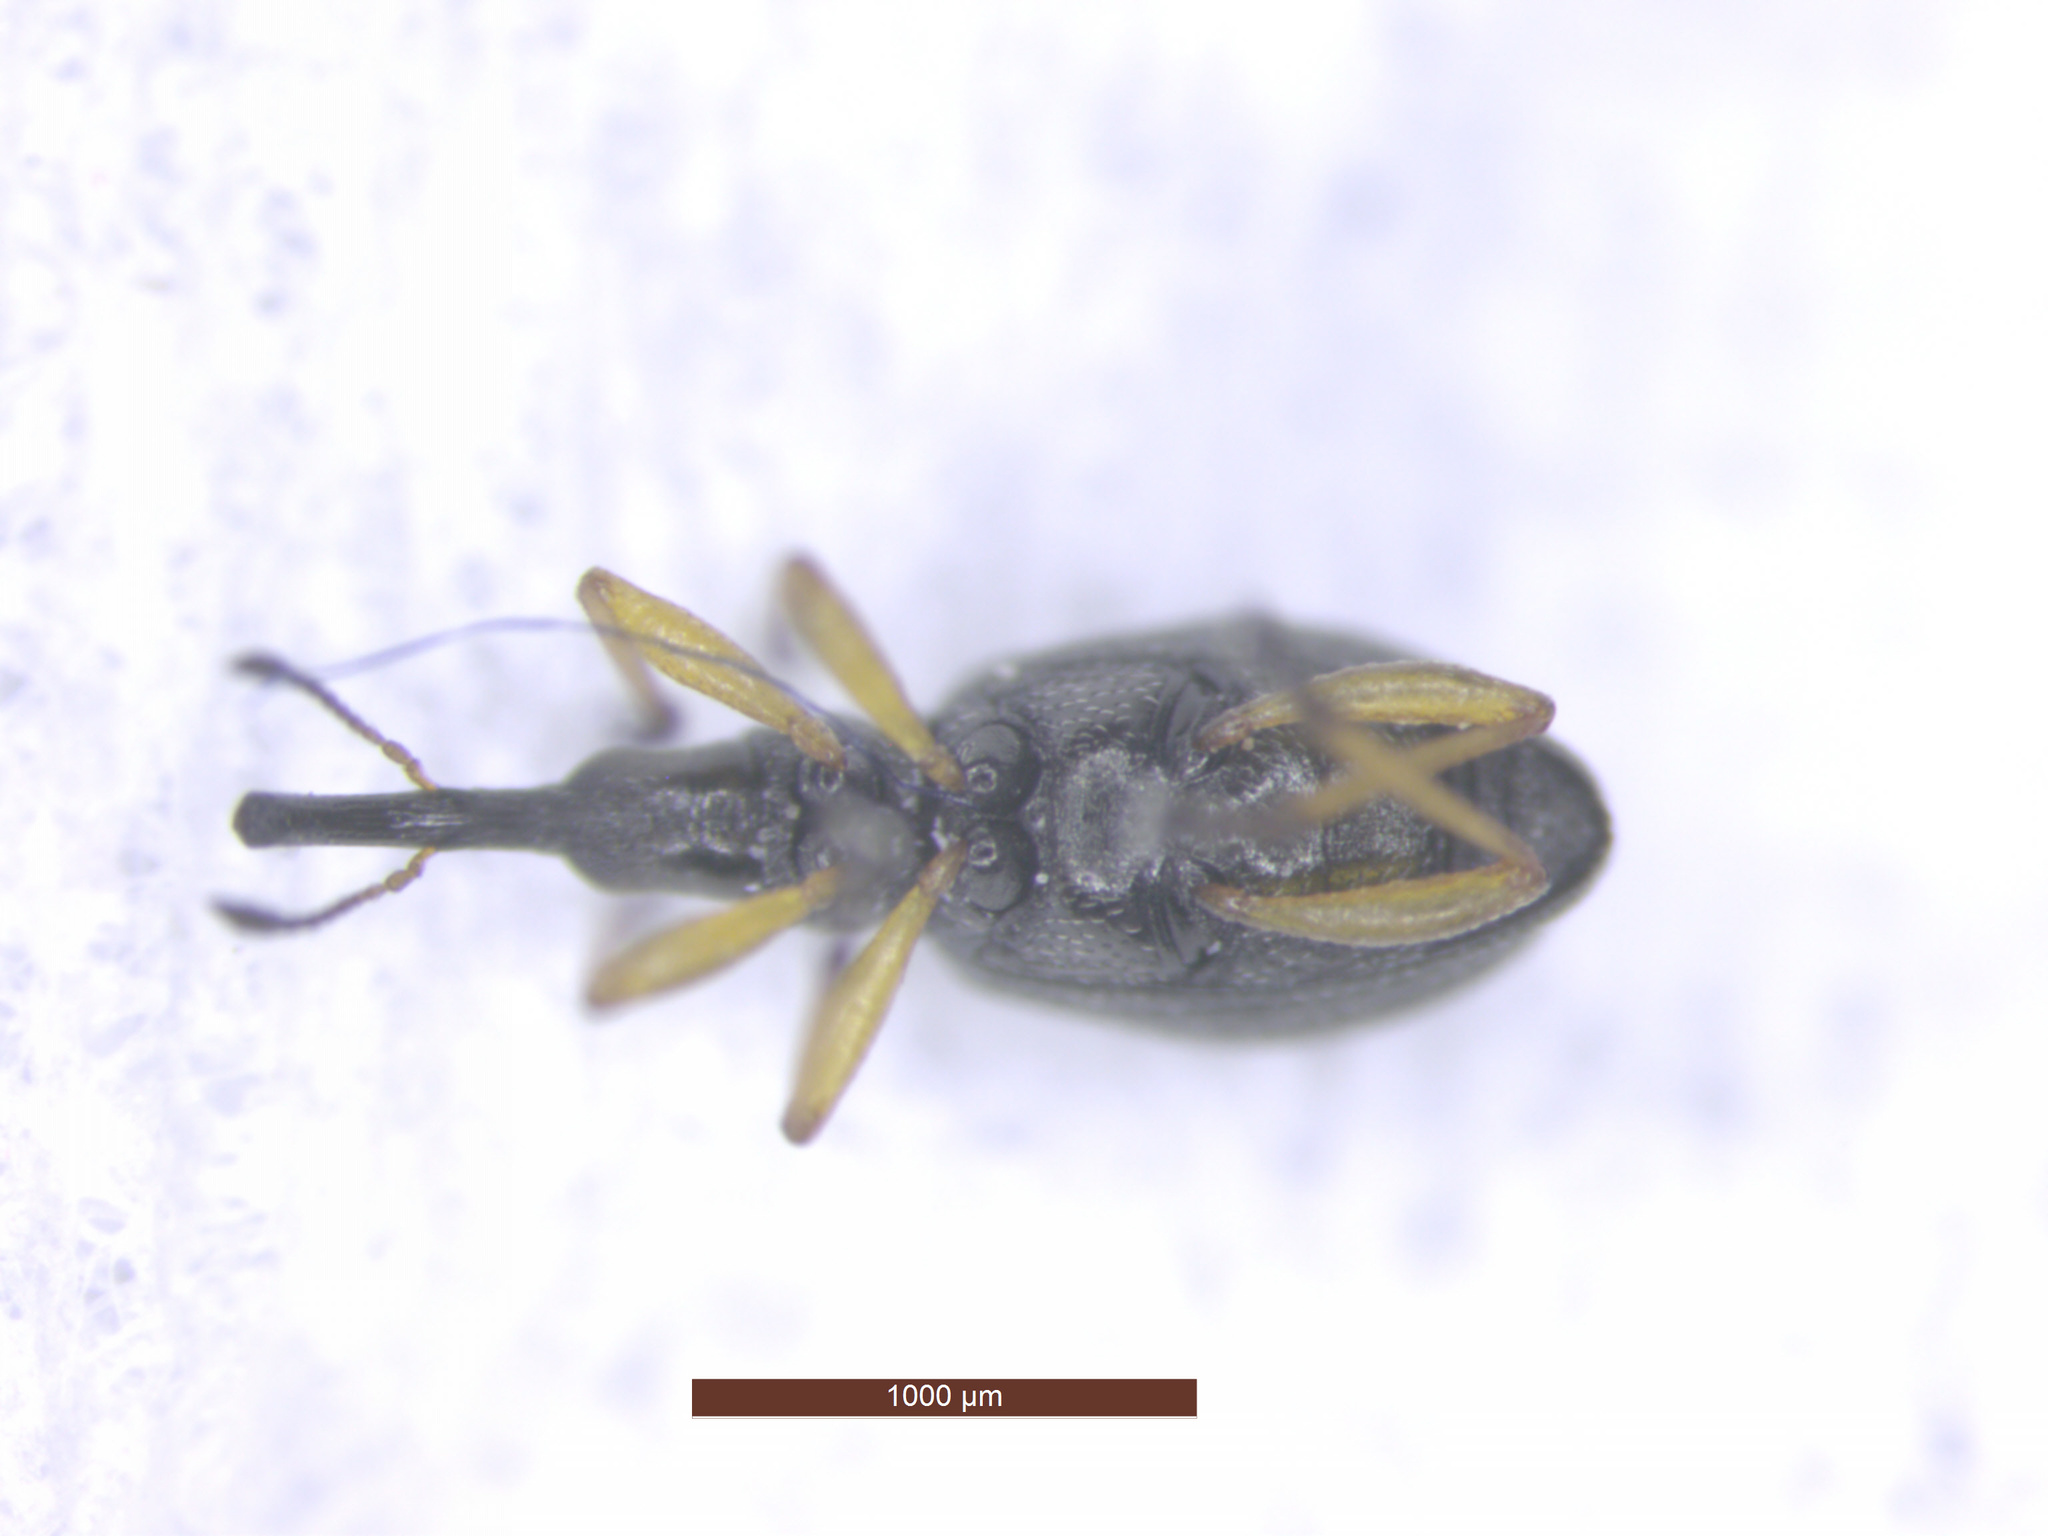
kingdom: Animalia
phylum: Arthropoda
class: Insecta
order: Coleoptera
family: Apionidae
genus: Protapion
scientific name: Protapion fulvipes
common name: White clover seed weevil
